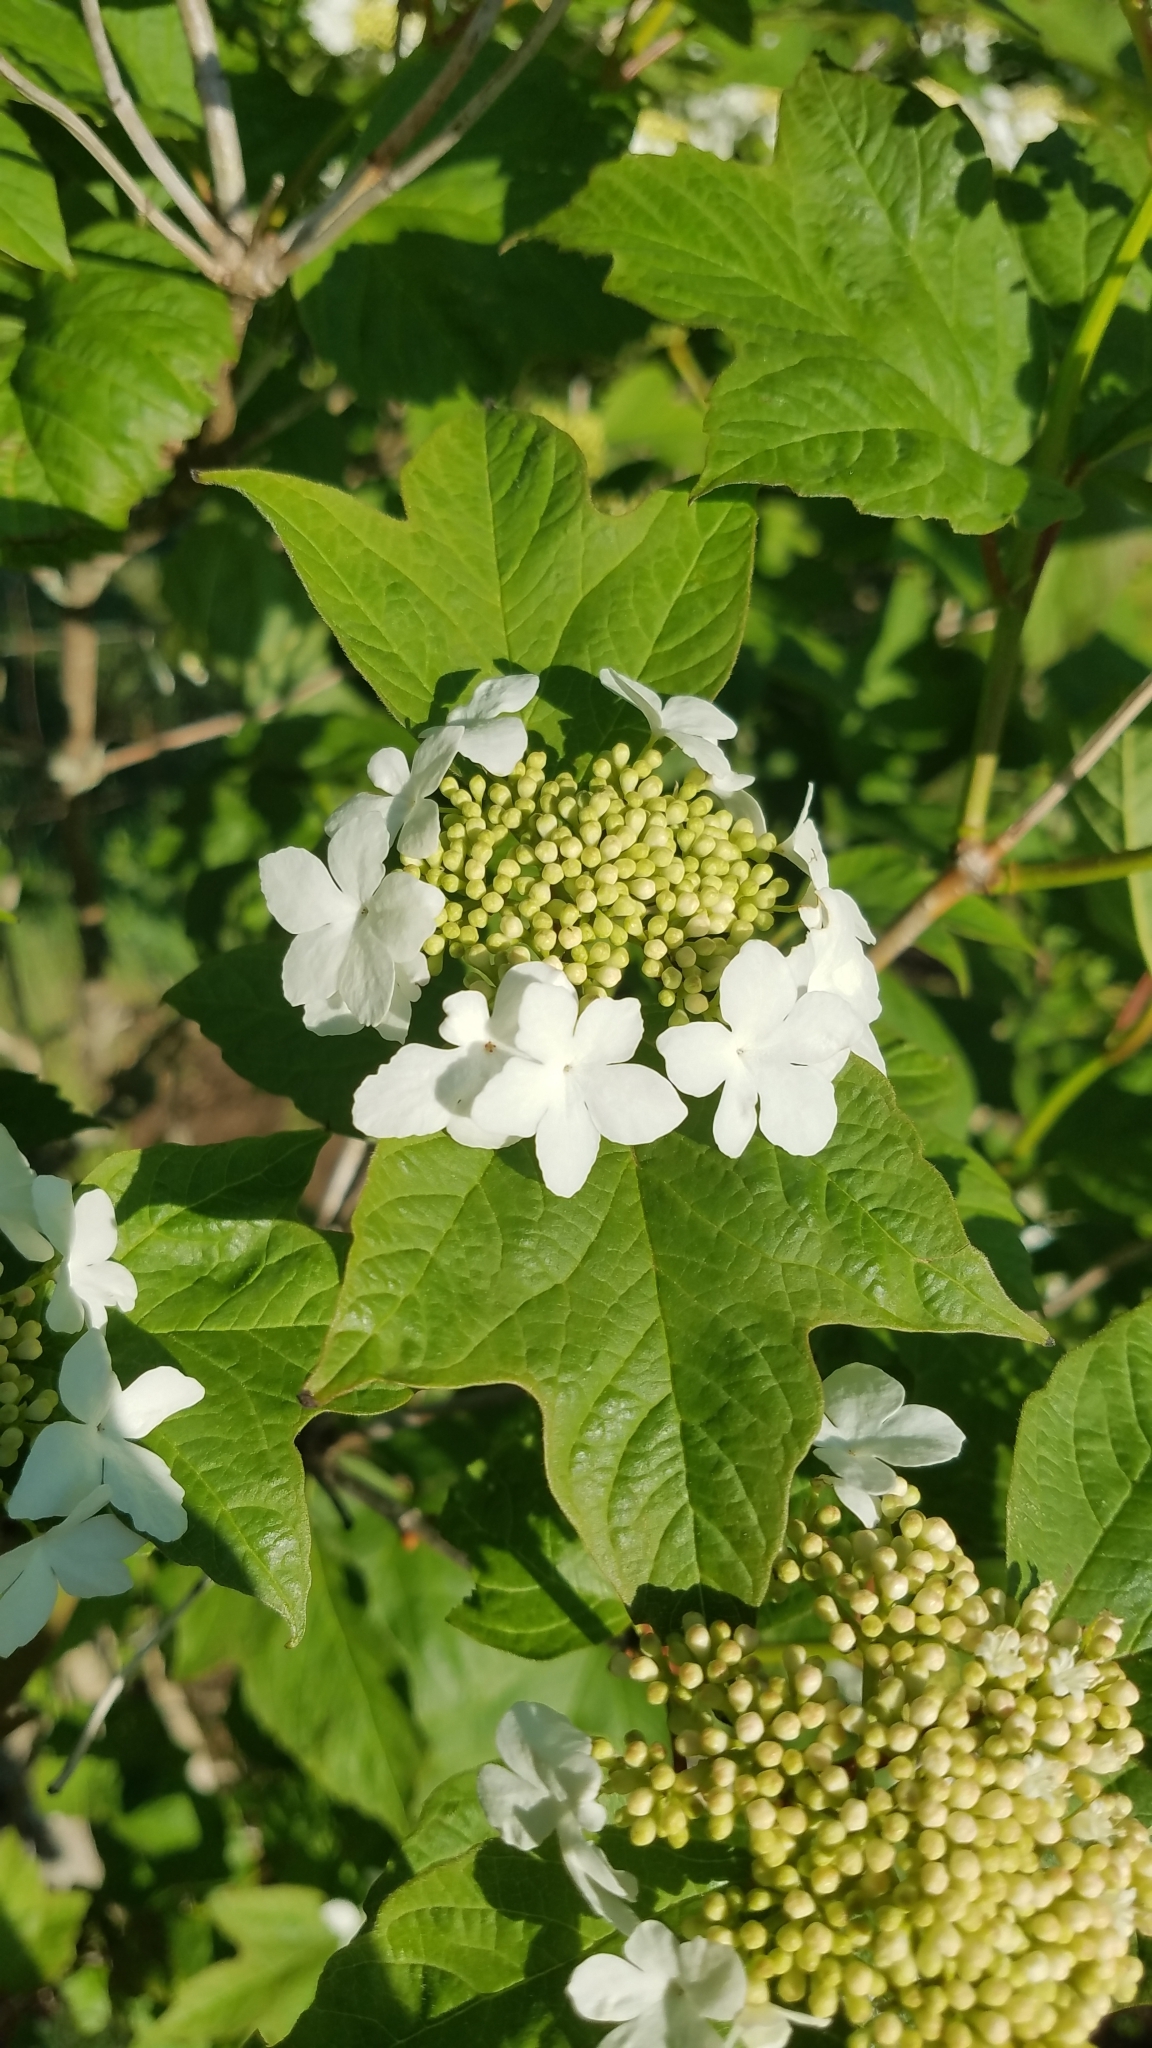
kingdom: Plantae
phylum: Tracheophyta
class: Magnoliopsida
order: Dipsacales
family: Viburnaceae
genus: Viburnum
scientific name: Viburnum opulus
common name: Guelder-rose
